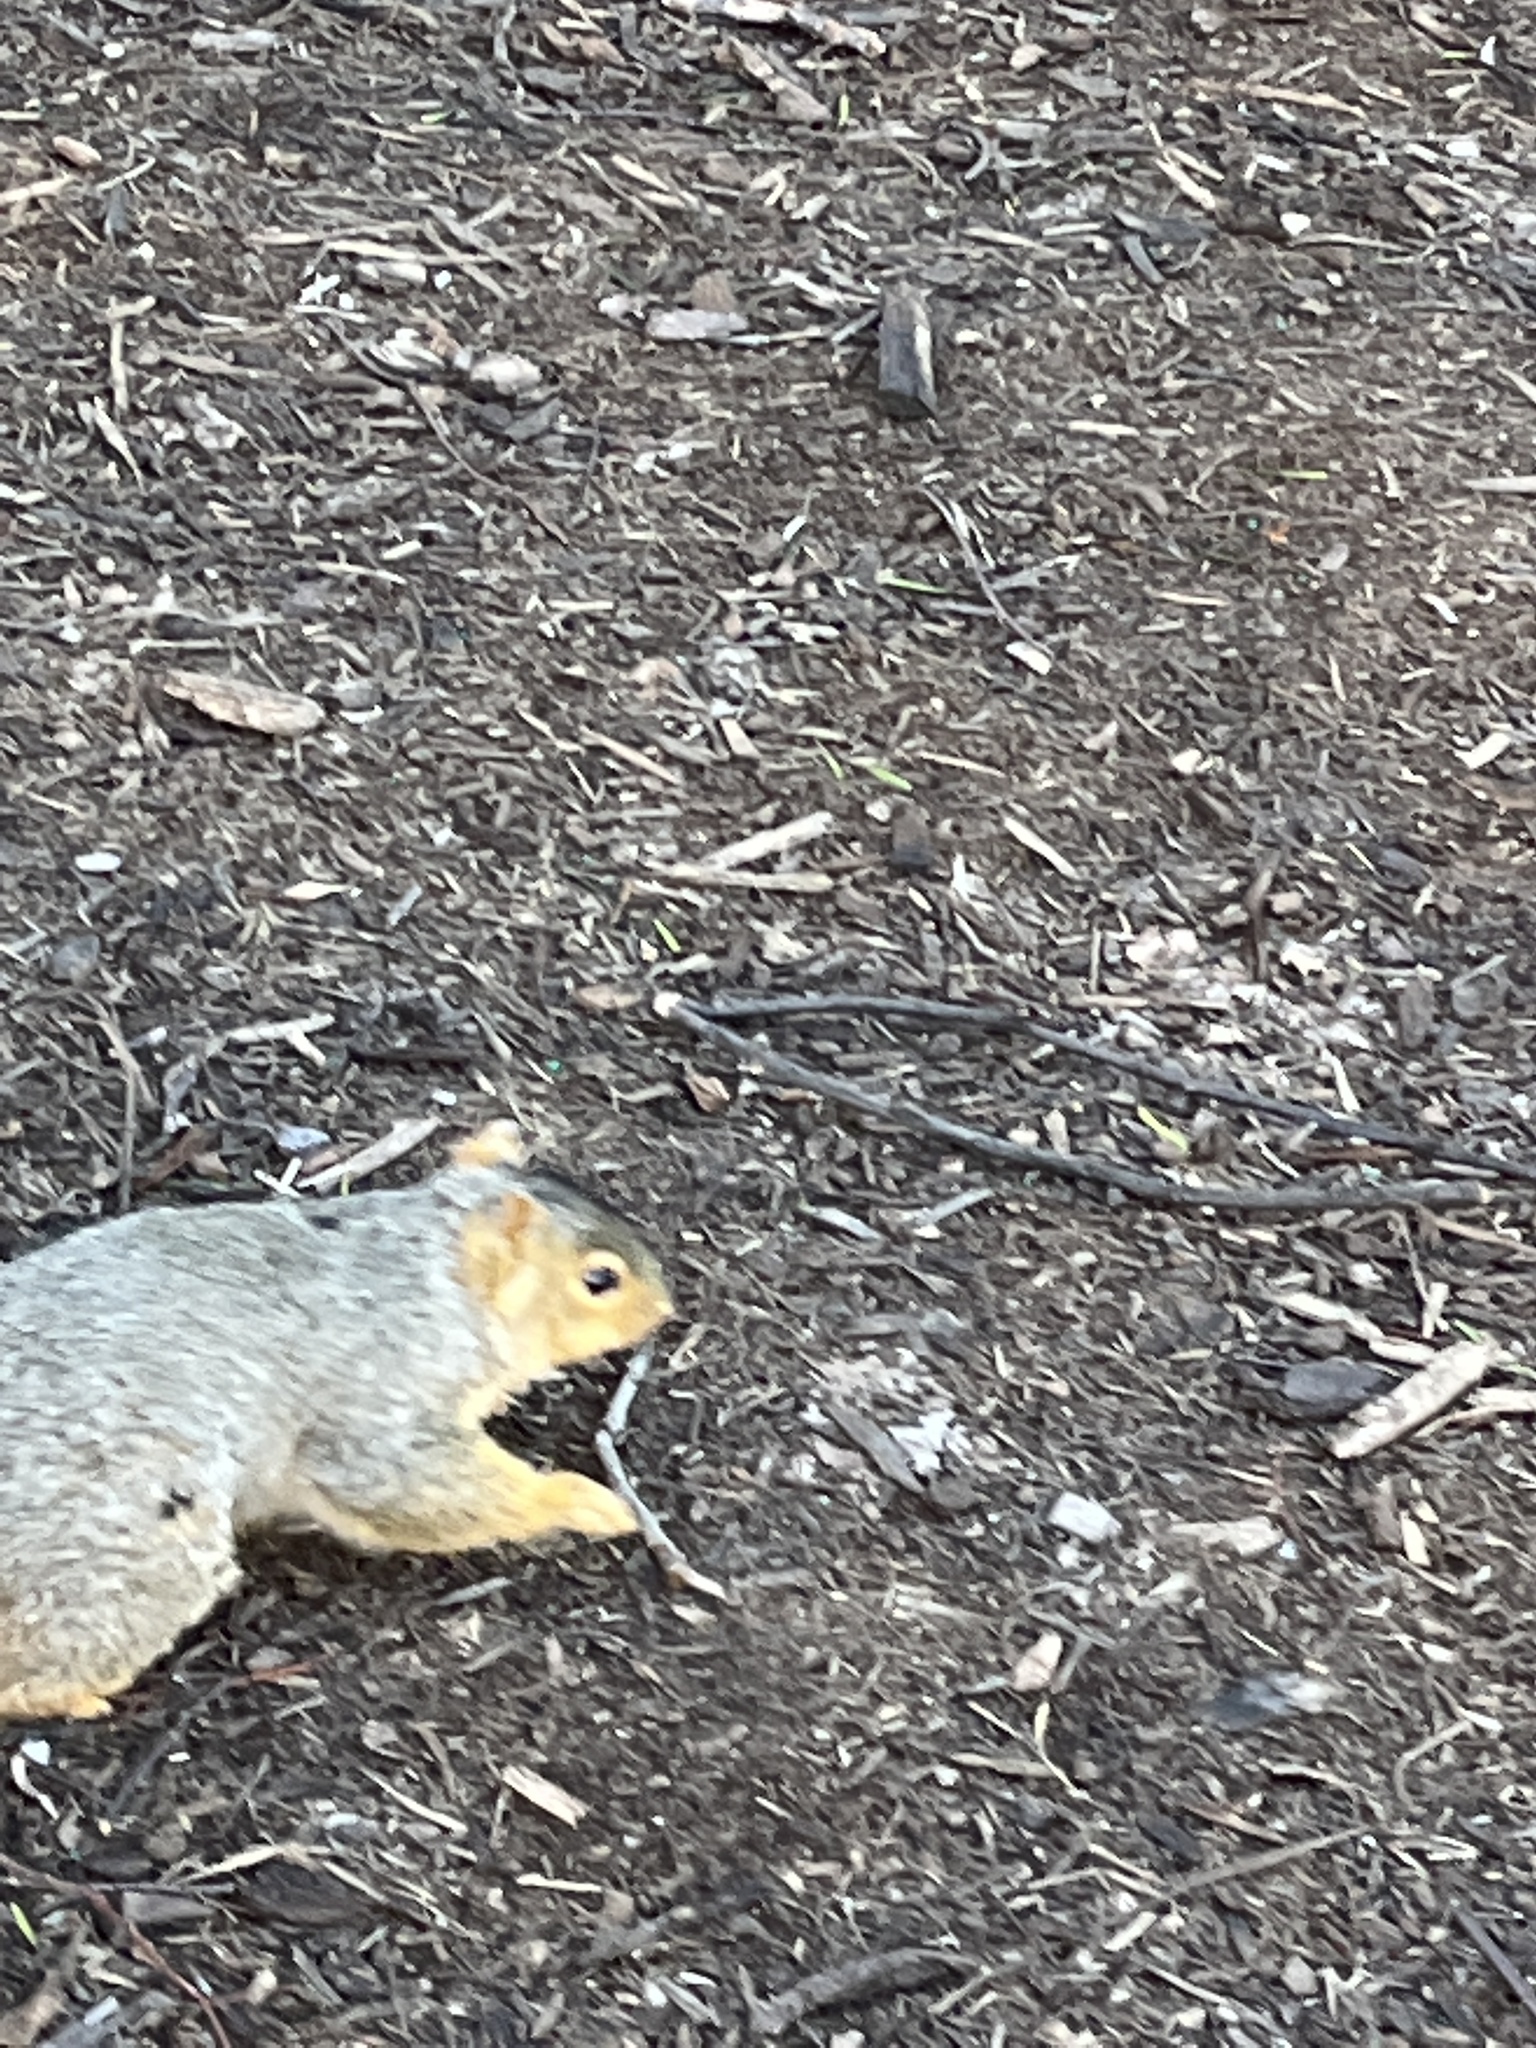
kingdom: Animalia
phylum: Chordata
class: Mammalia
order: Rodentia
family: Sciuridae
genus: Sciurus
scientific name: Sciurus niger
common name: Fox squirrel
